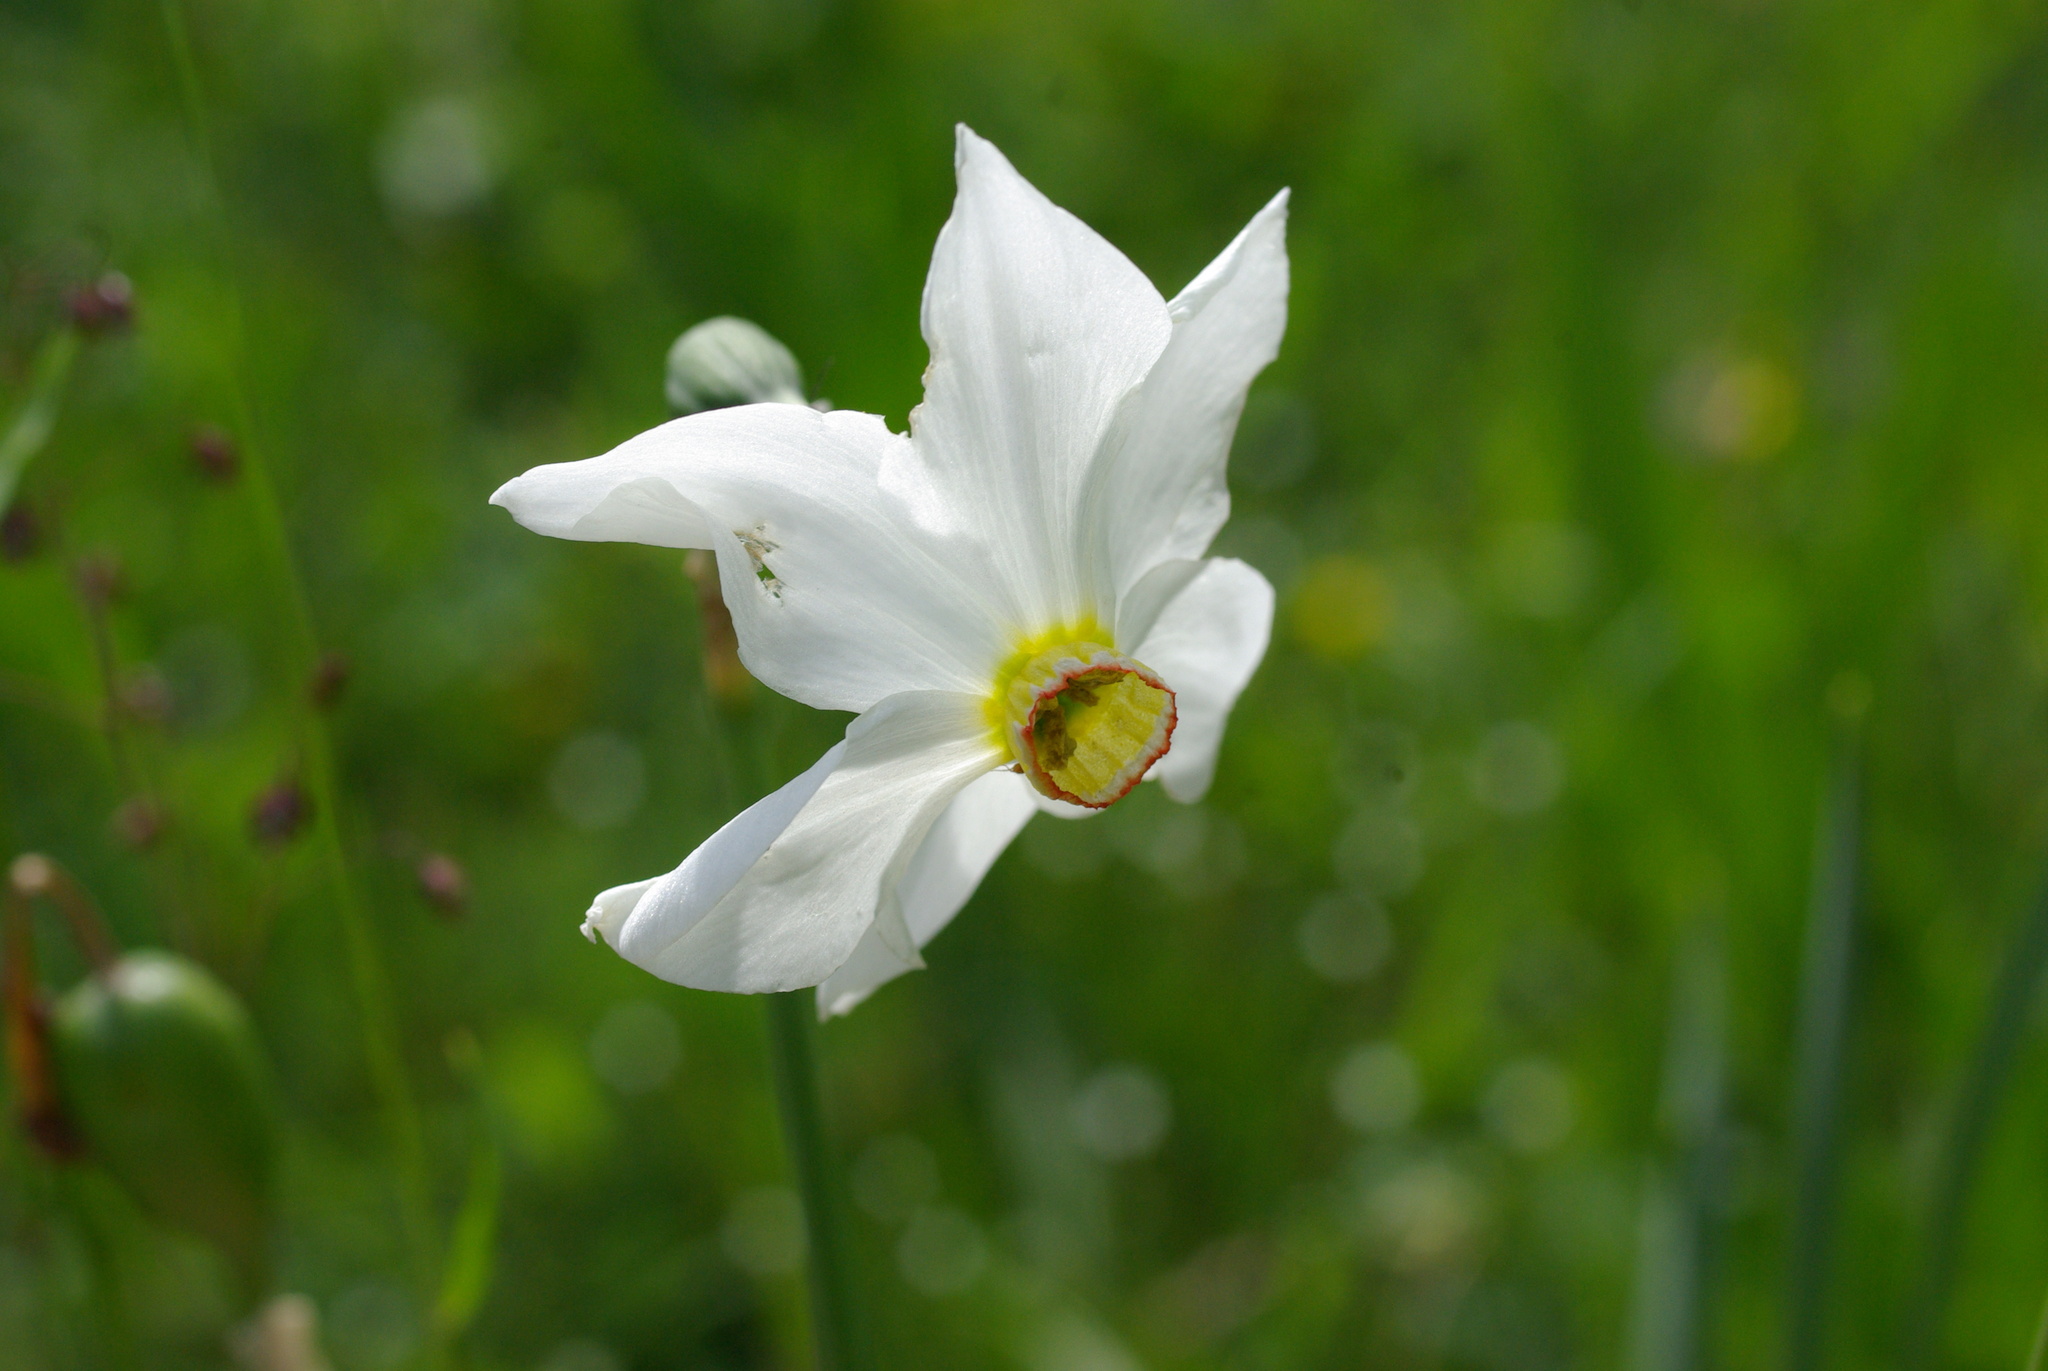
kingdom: Plantae
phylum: Tracheophyta
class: Liliopsida
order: Asparagales
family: Amaryllidaceae
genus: Narcissus
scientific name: Narcissus poeticus
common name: Pheasant's-eye daffodil
